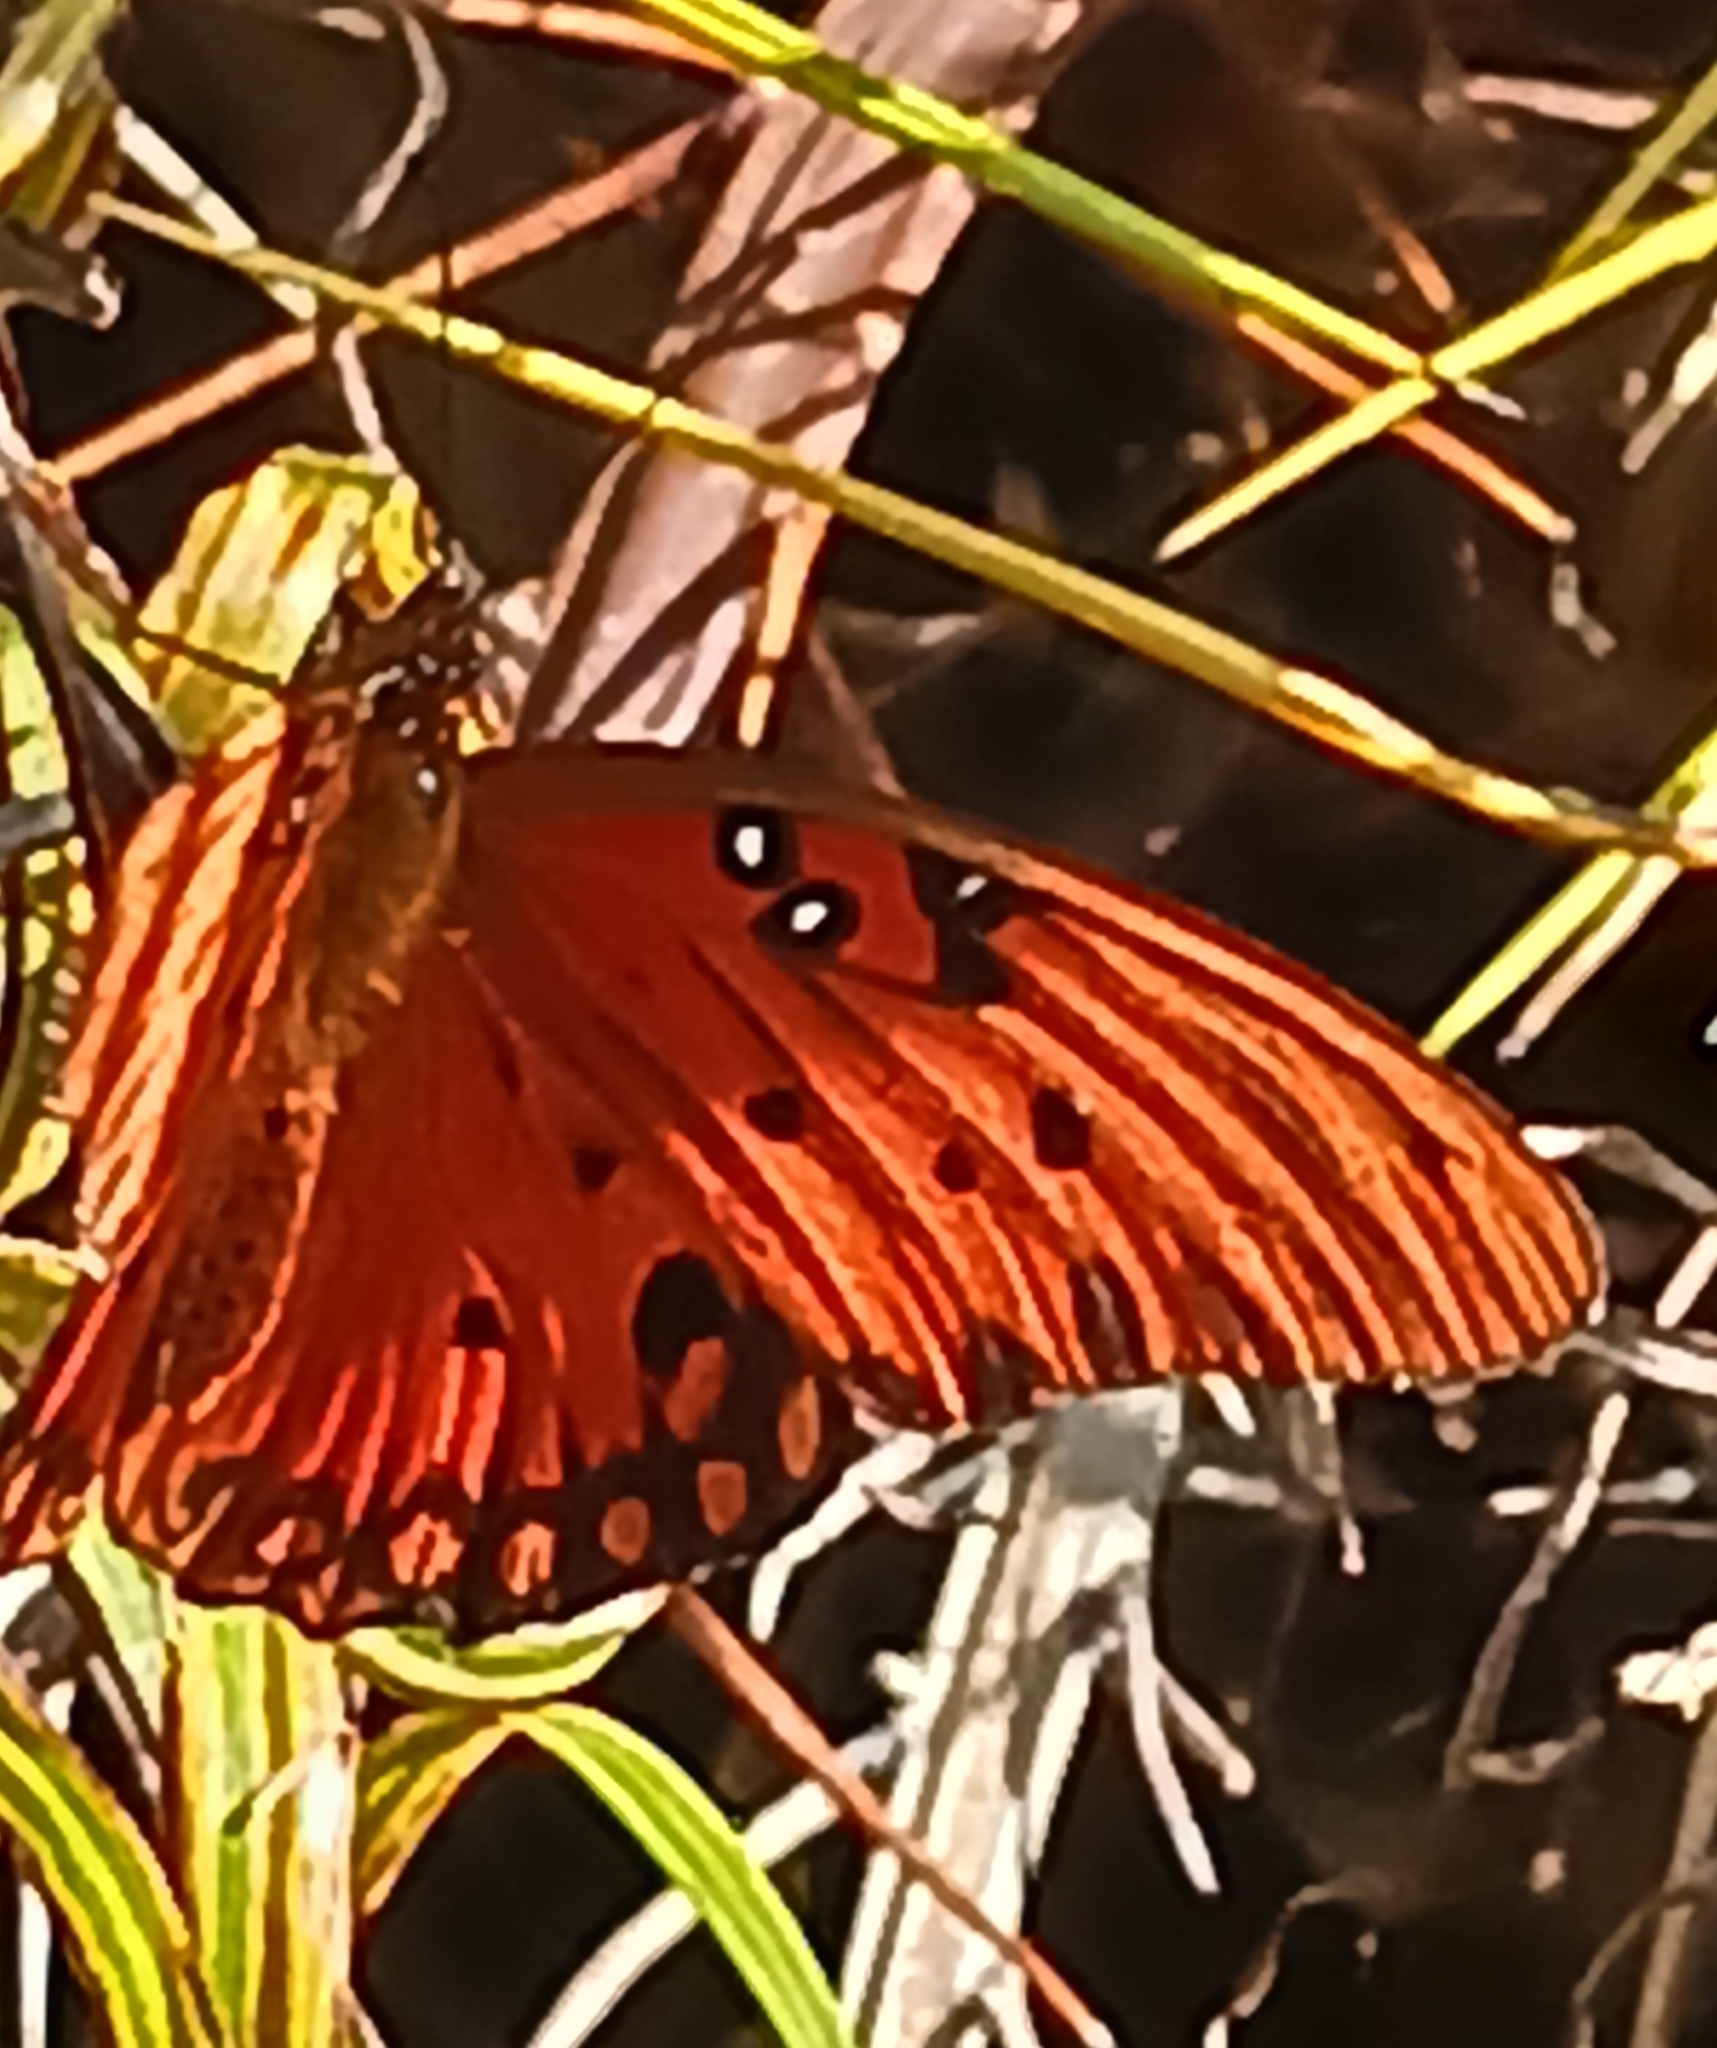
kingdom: Animalia
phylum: Arthropoda
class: Insecta
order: Lepidoptera
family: Nymphalidae
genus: Dione
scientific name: Dione vanillae
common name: Gulf fritillary
